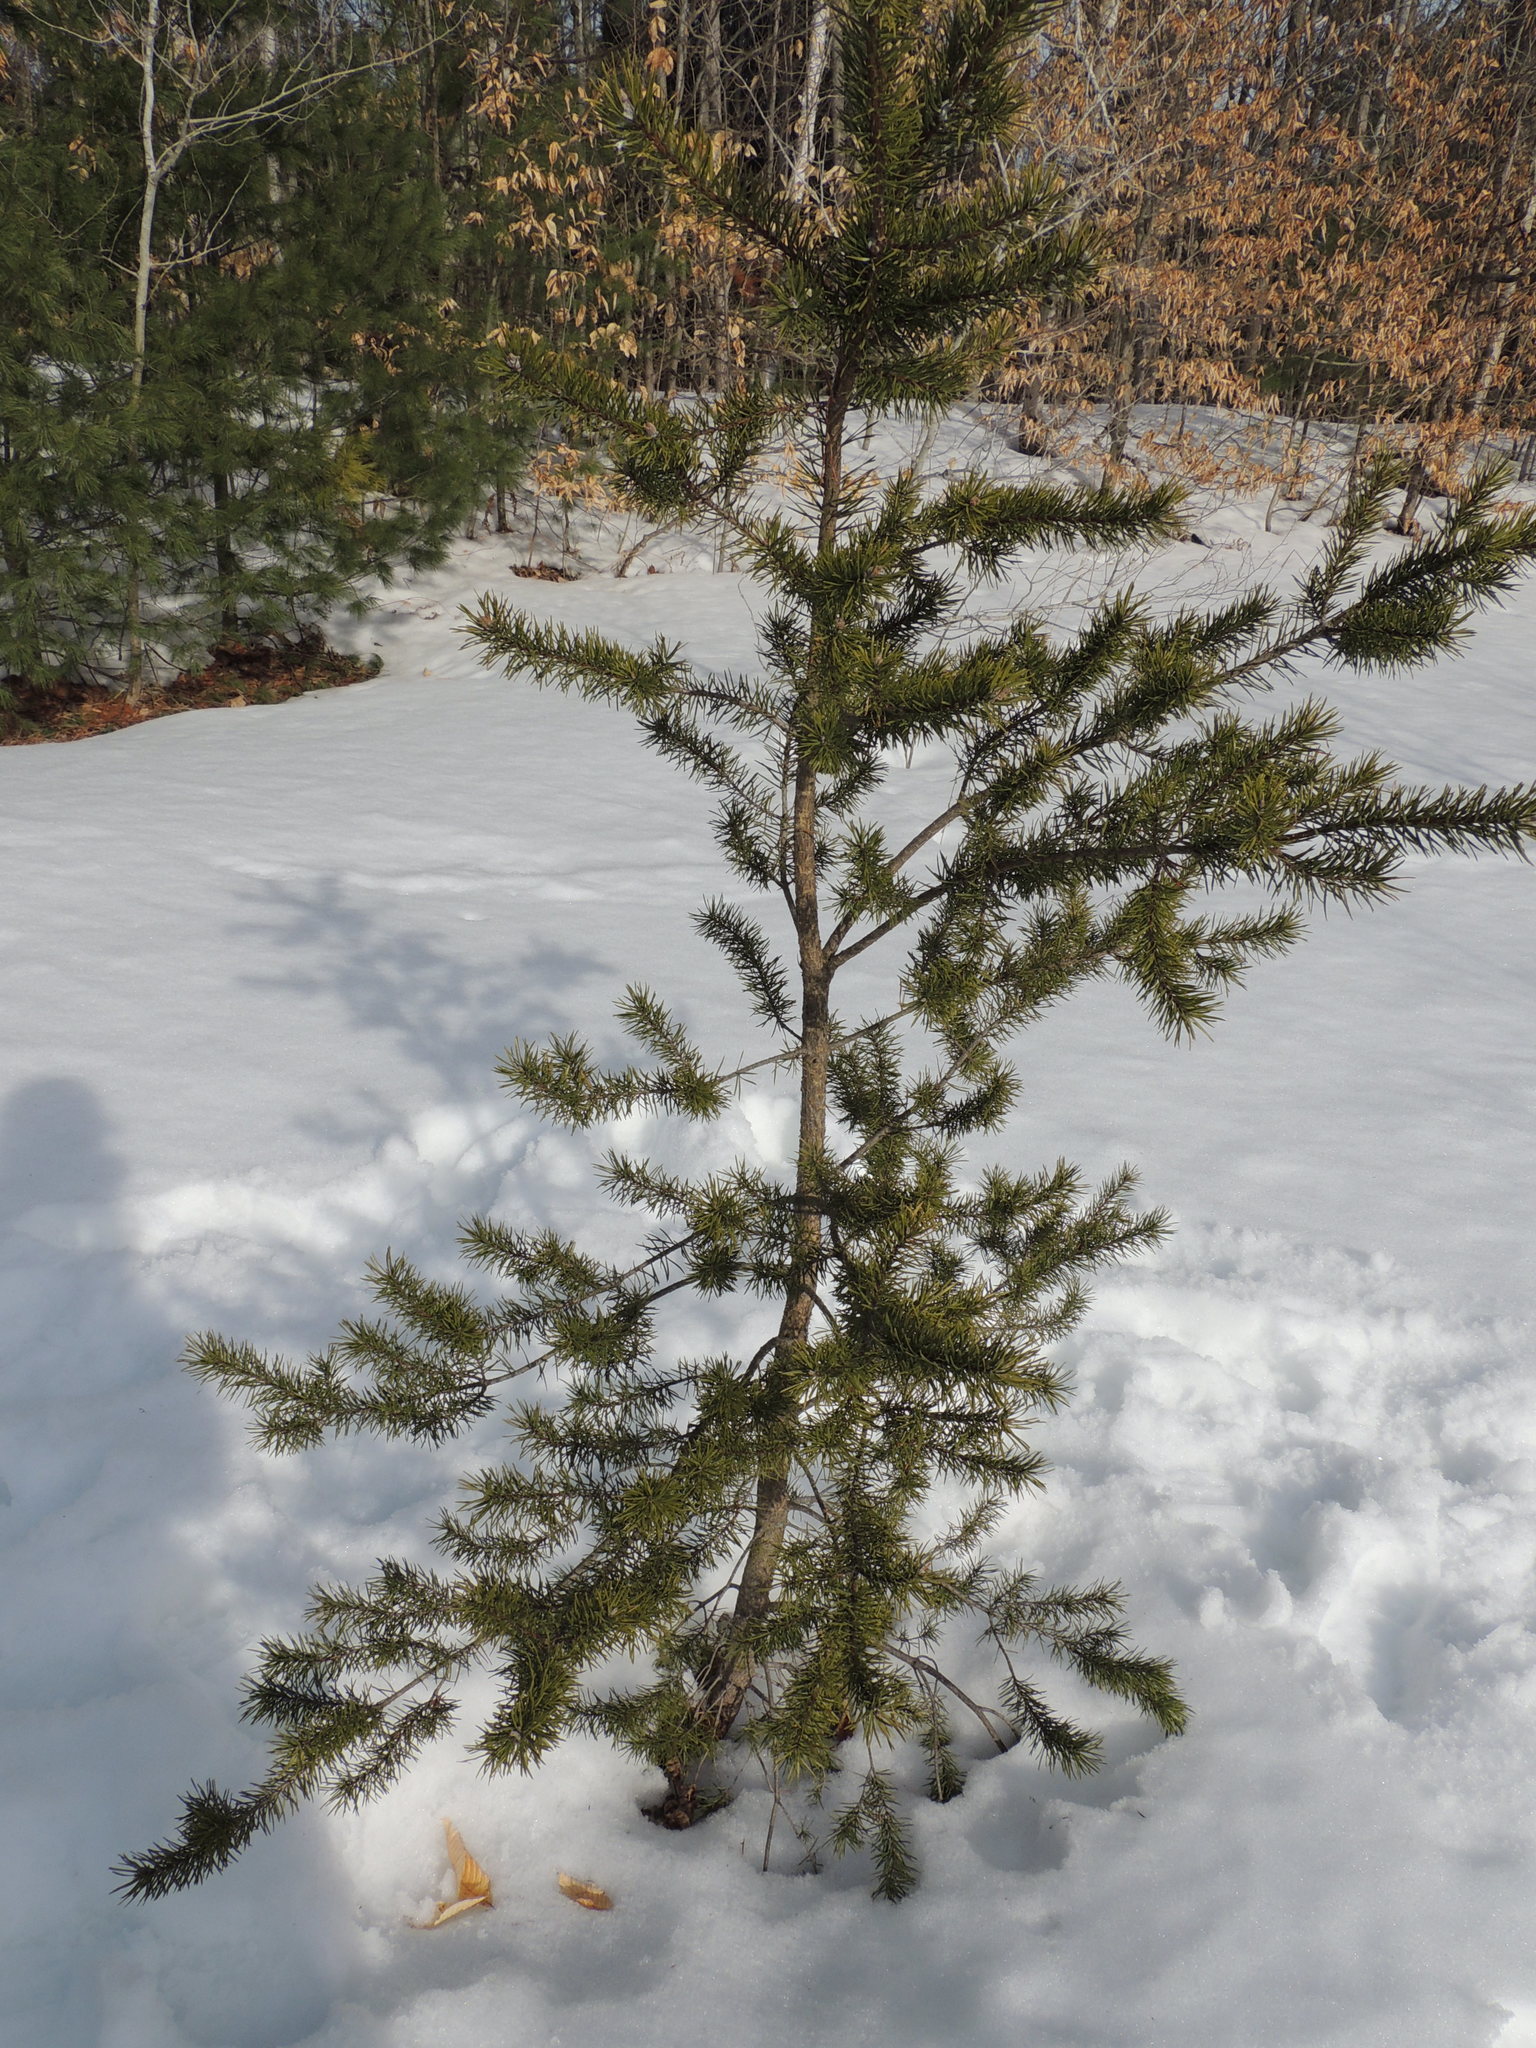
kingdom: Plantae
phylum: Tracheophyta
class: Pinopsida
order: Pinales
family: Pinaceae
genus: Pinus
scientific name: Pinus banksiana
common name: Jack pine
